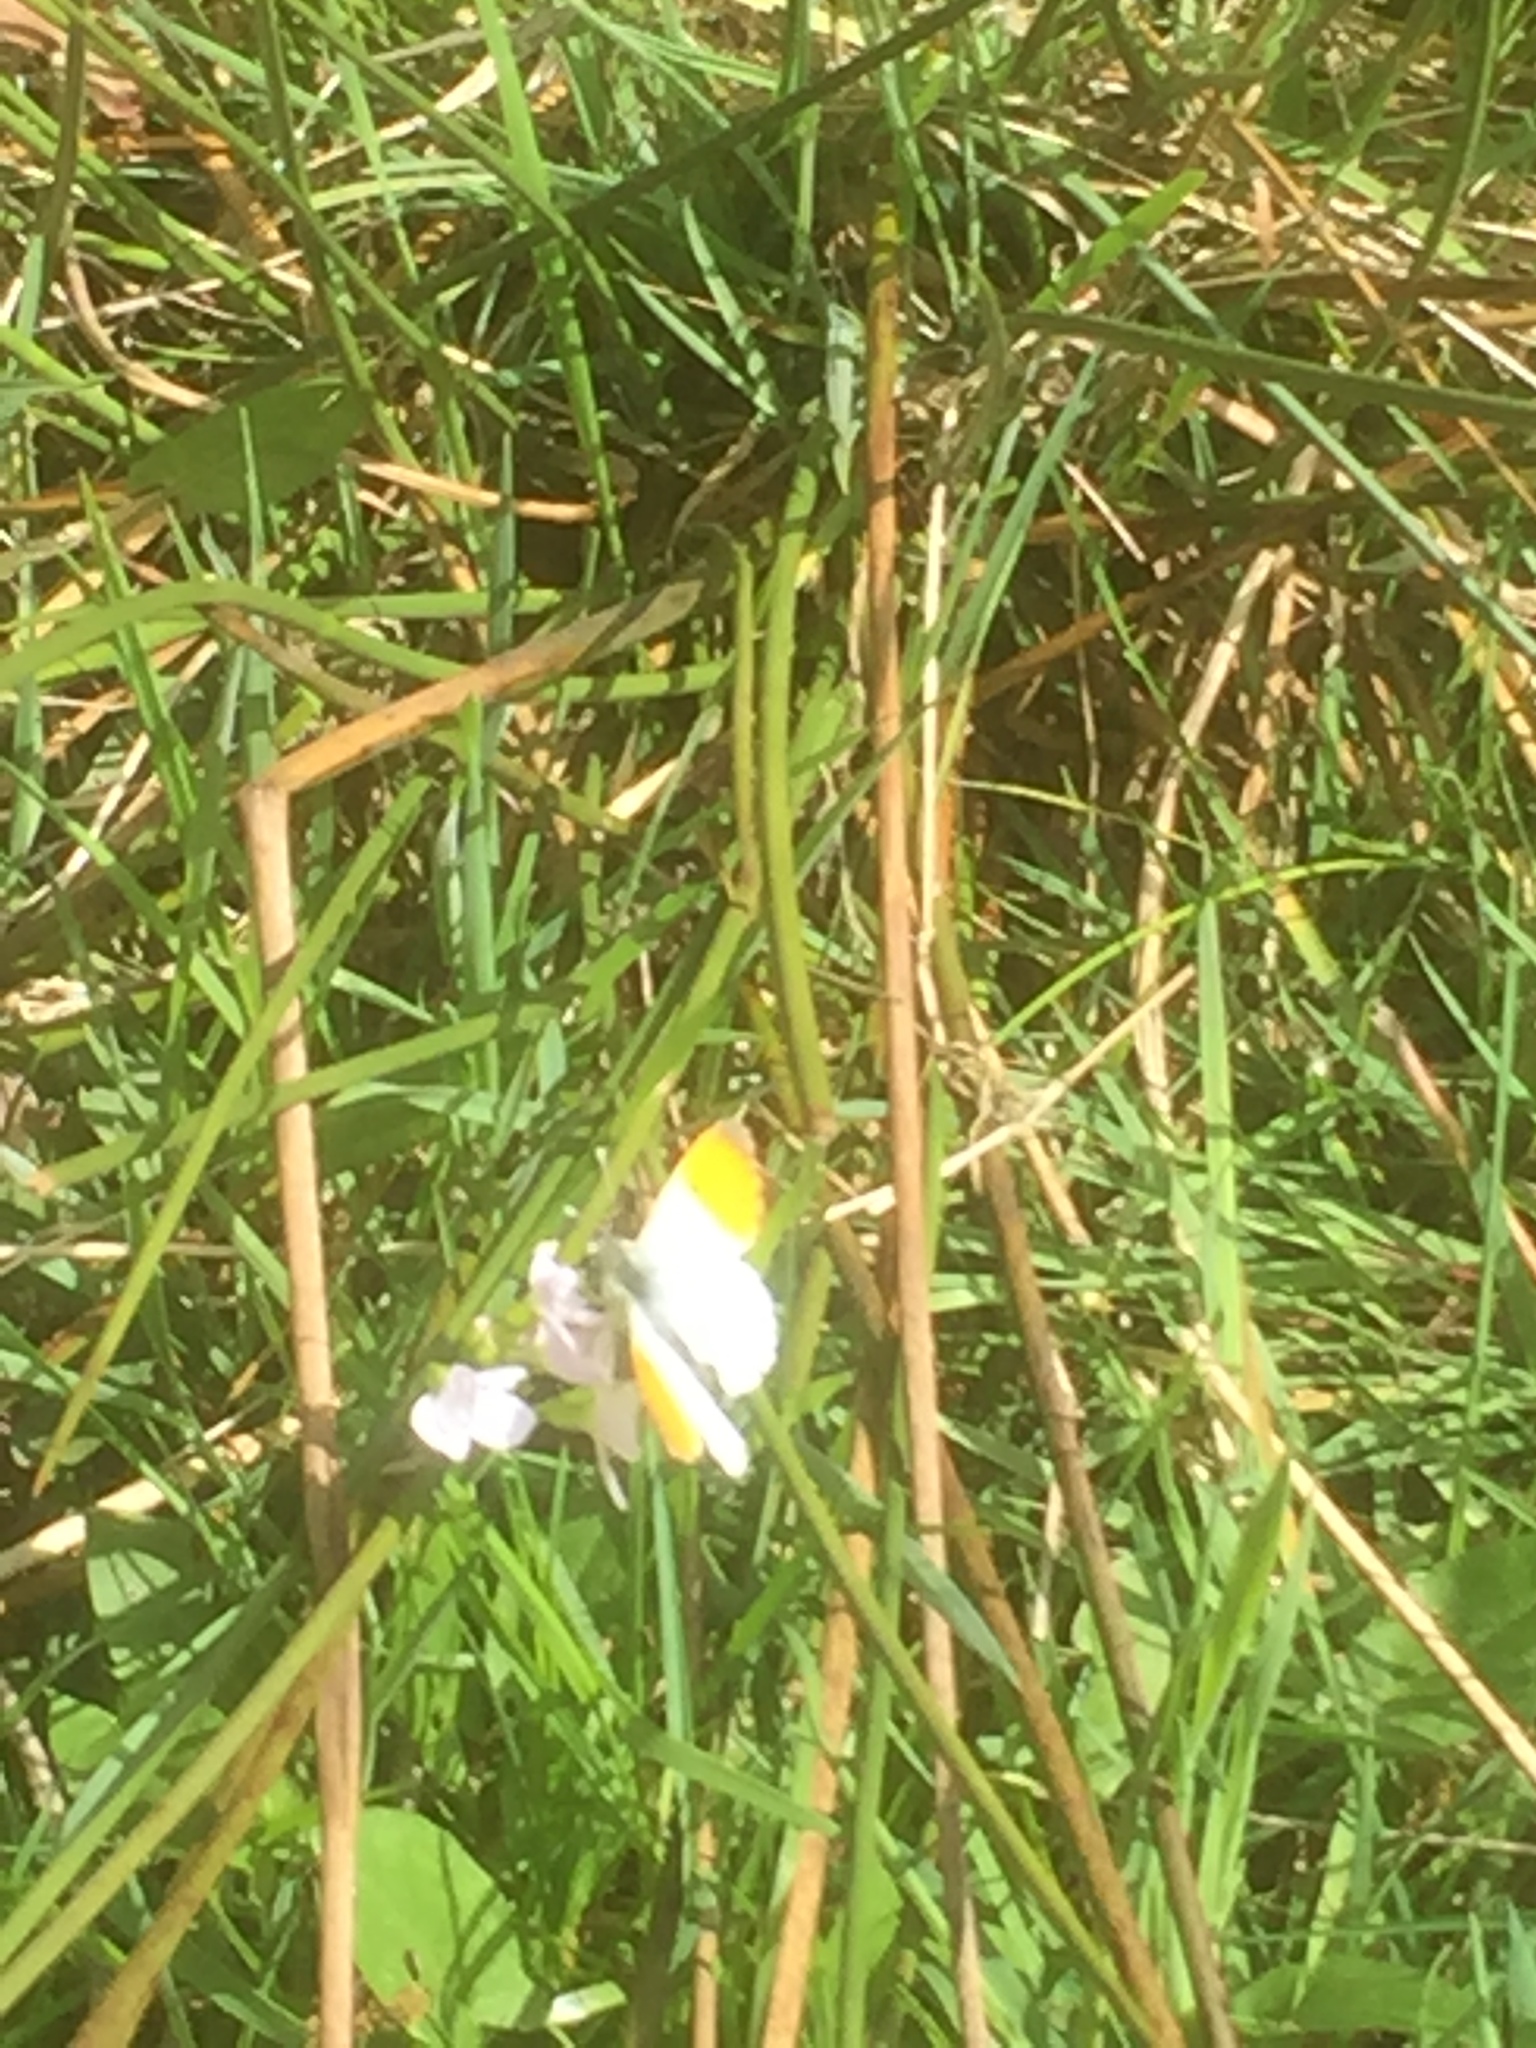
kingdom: Animalia
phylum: Arthropoda
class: Insecta
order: Lepidoptera
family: Pieridae
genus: Anthocharis
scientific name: Anthocharis cardamines
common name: Orange-tip
